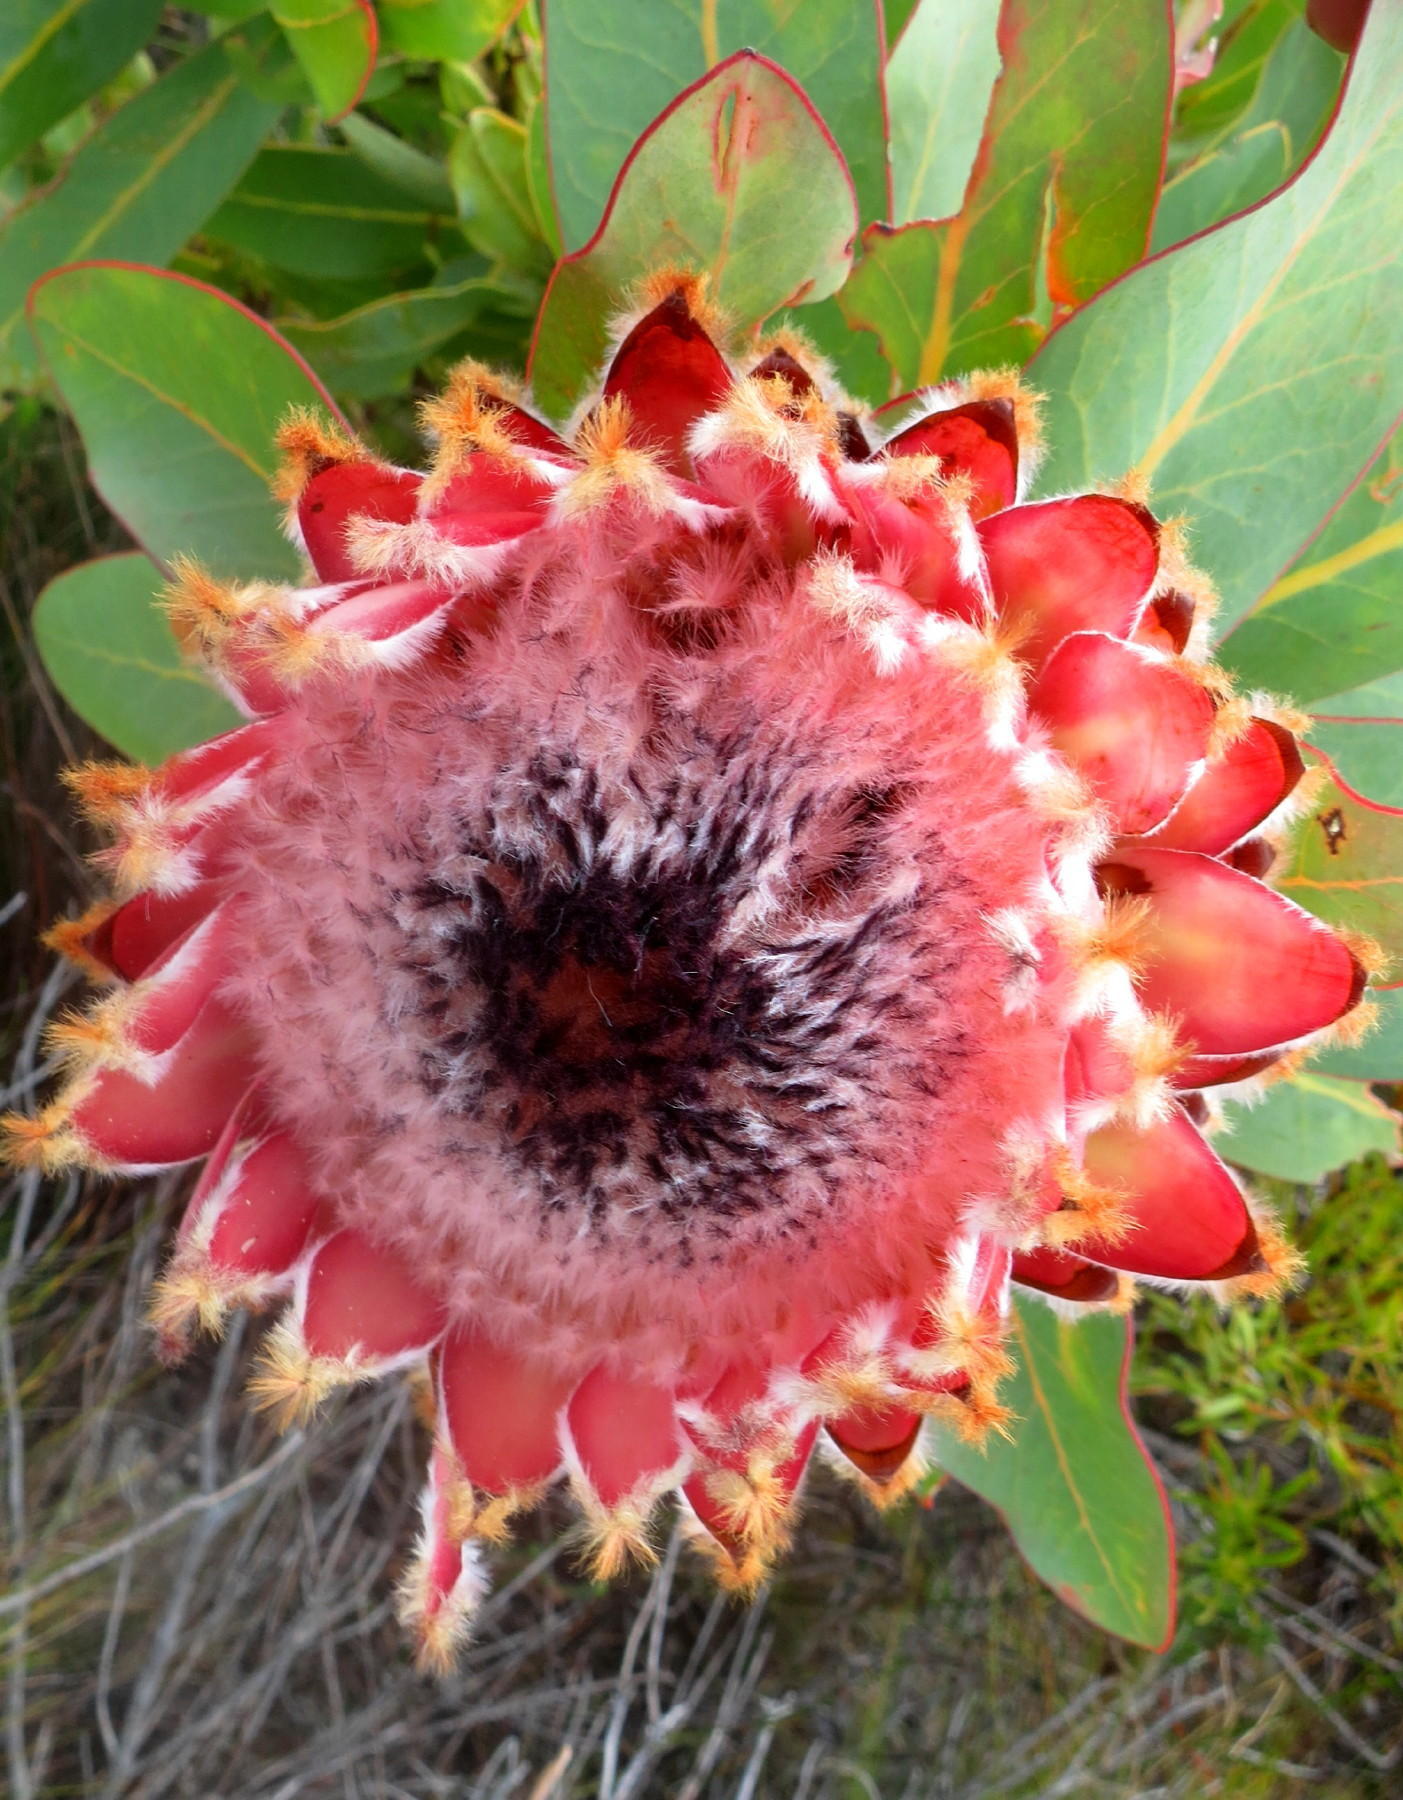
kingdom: Plantae
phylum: Tracheophyta
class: Magnoliopsida
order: Proteales
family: Proteaceae
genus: Protea
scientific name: Protea magnifica
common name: Bearded sugarbush
